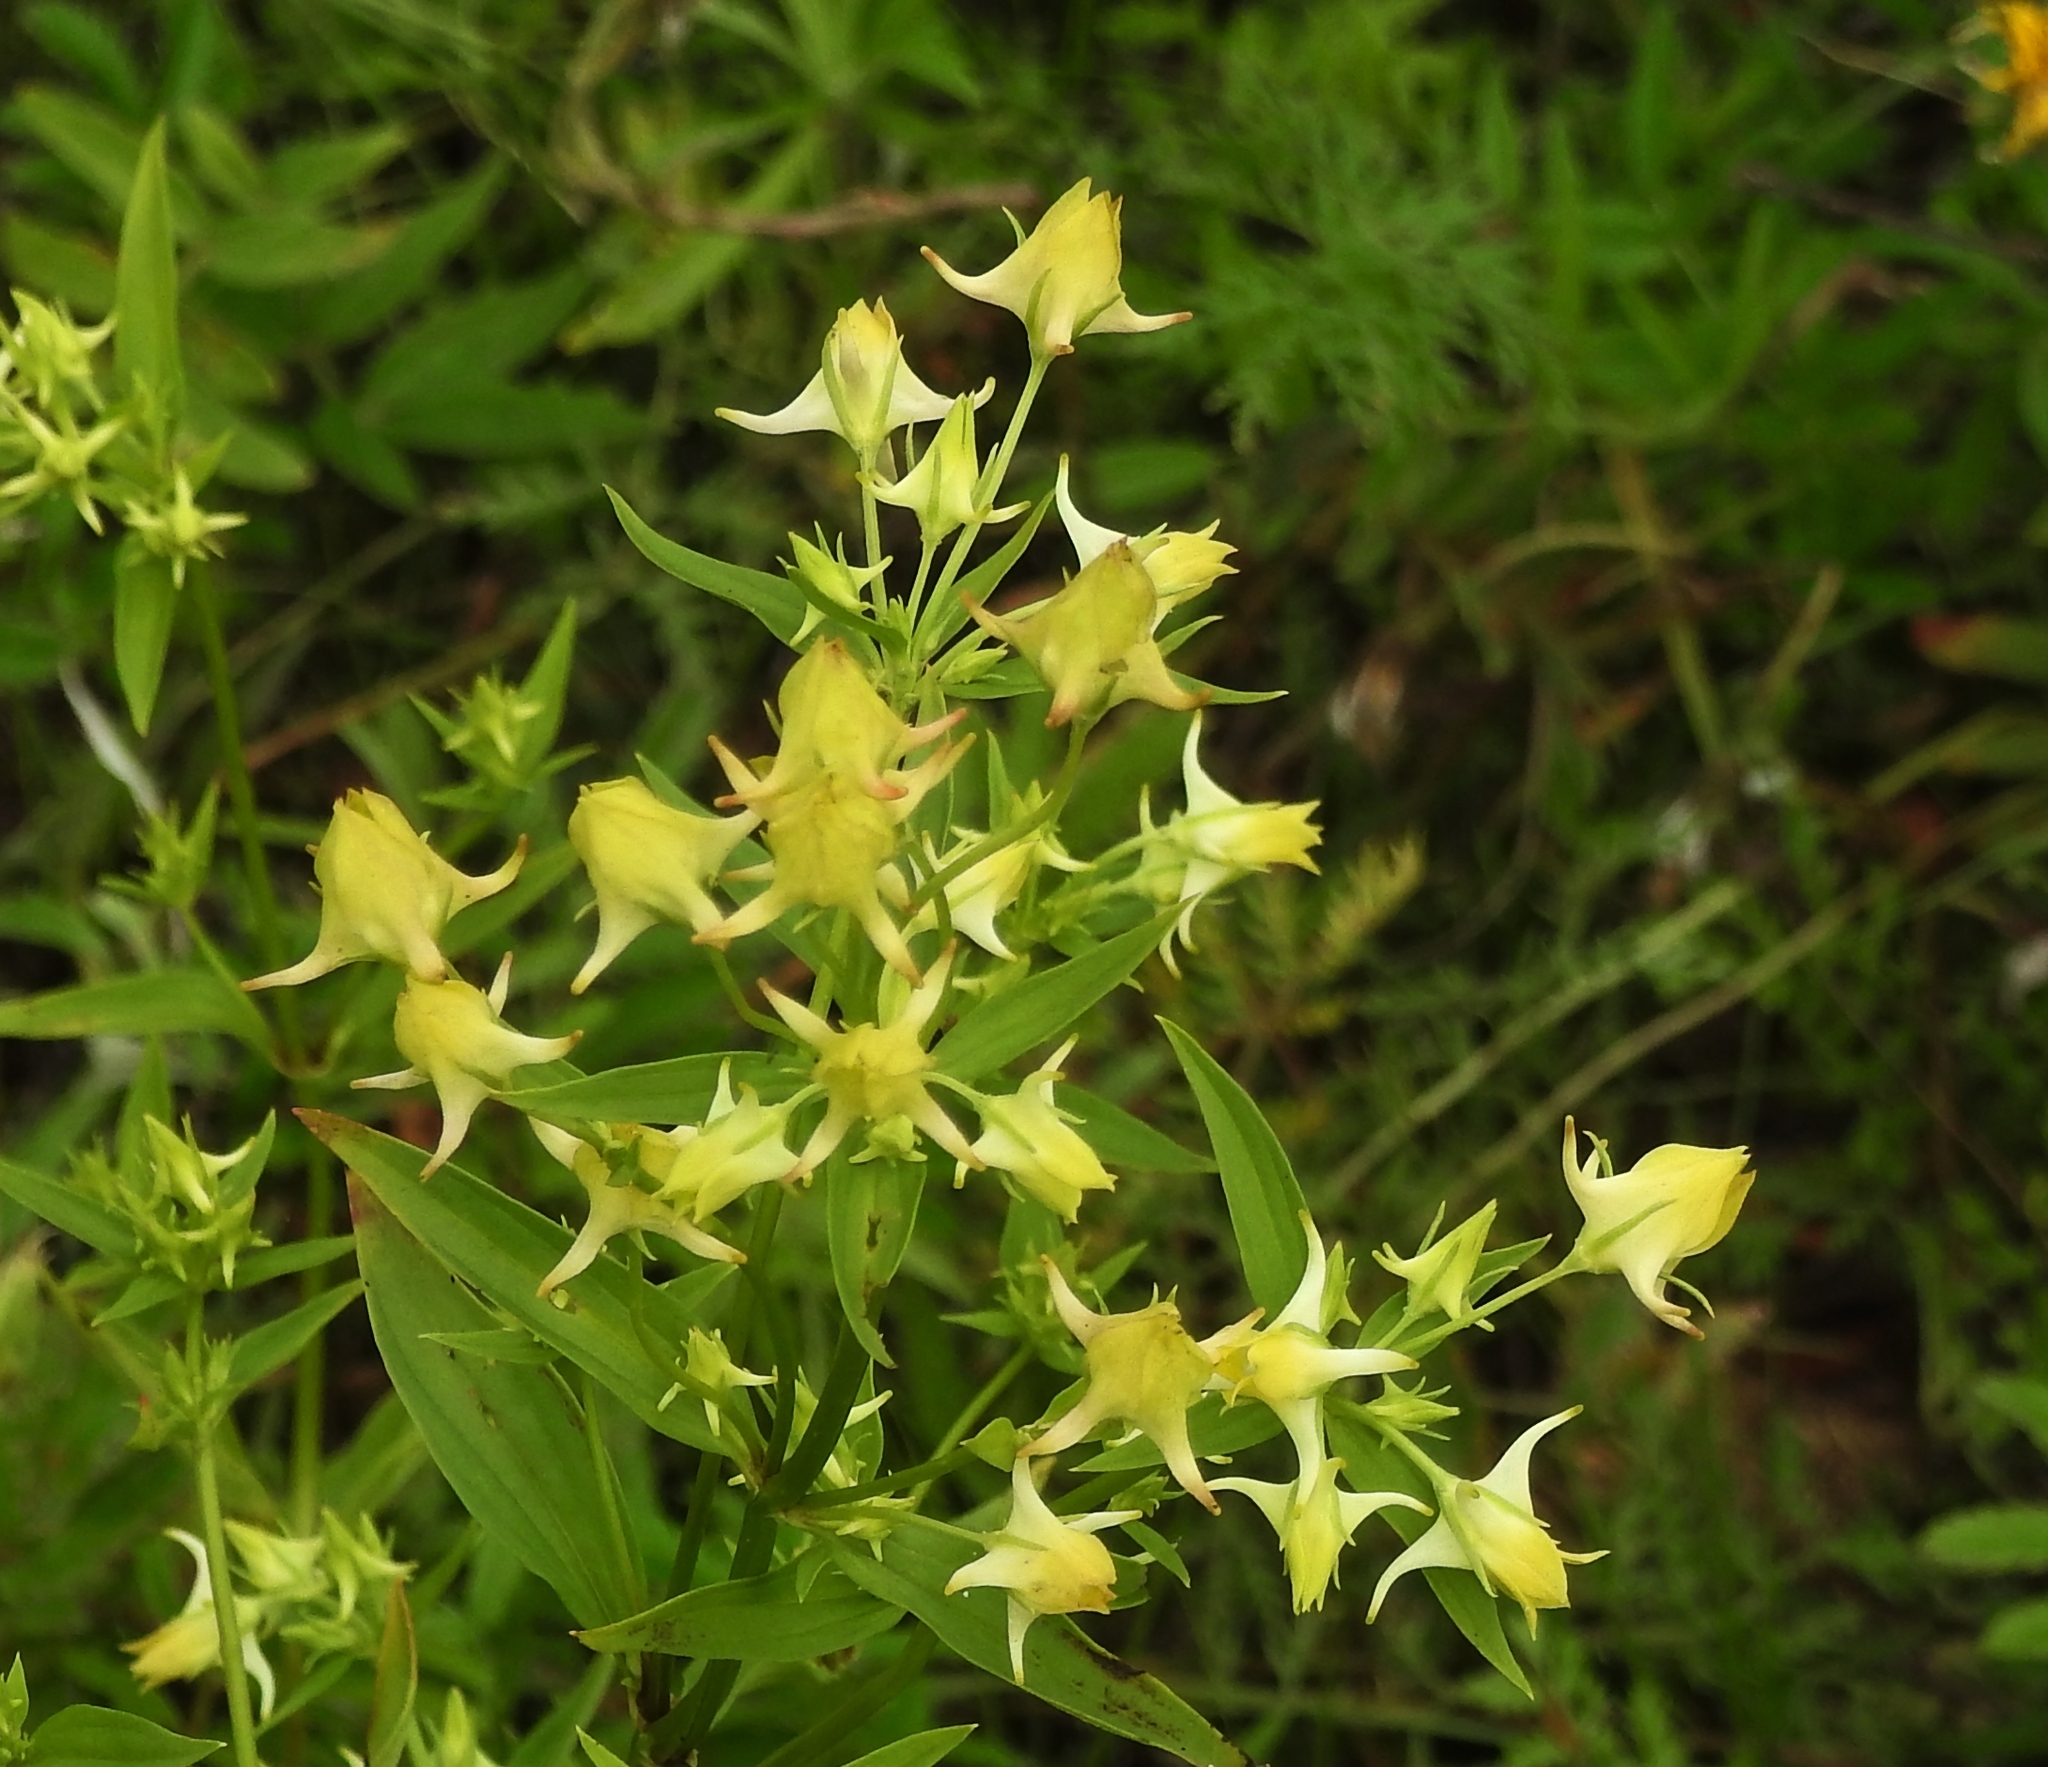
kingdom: Plantae
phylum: Tracheophyta
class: Magnoliopsida
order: Gentianales
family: Gentianaceae
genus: Halenia
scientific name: Halenia corniculata
